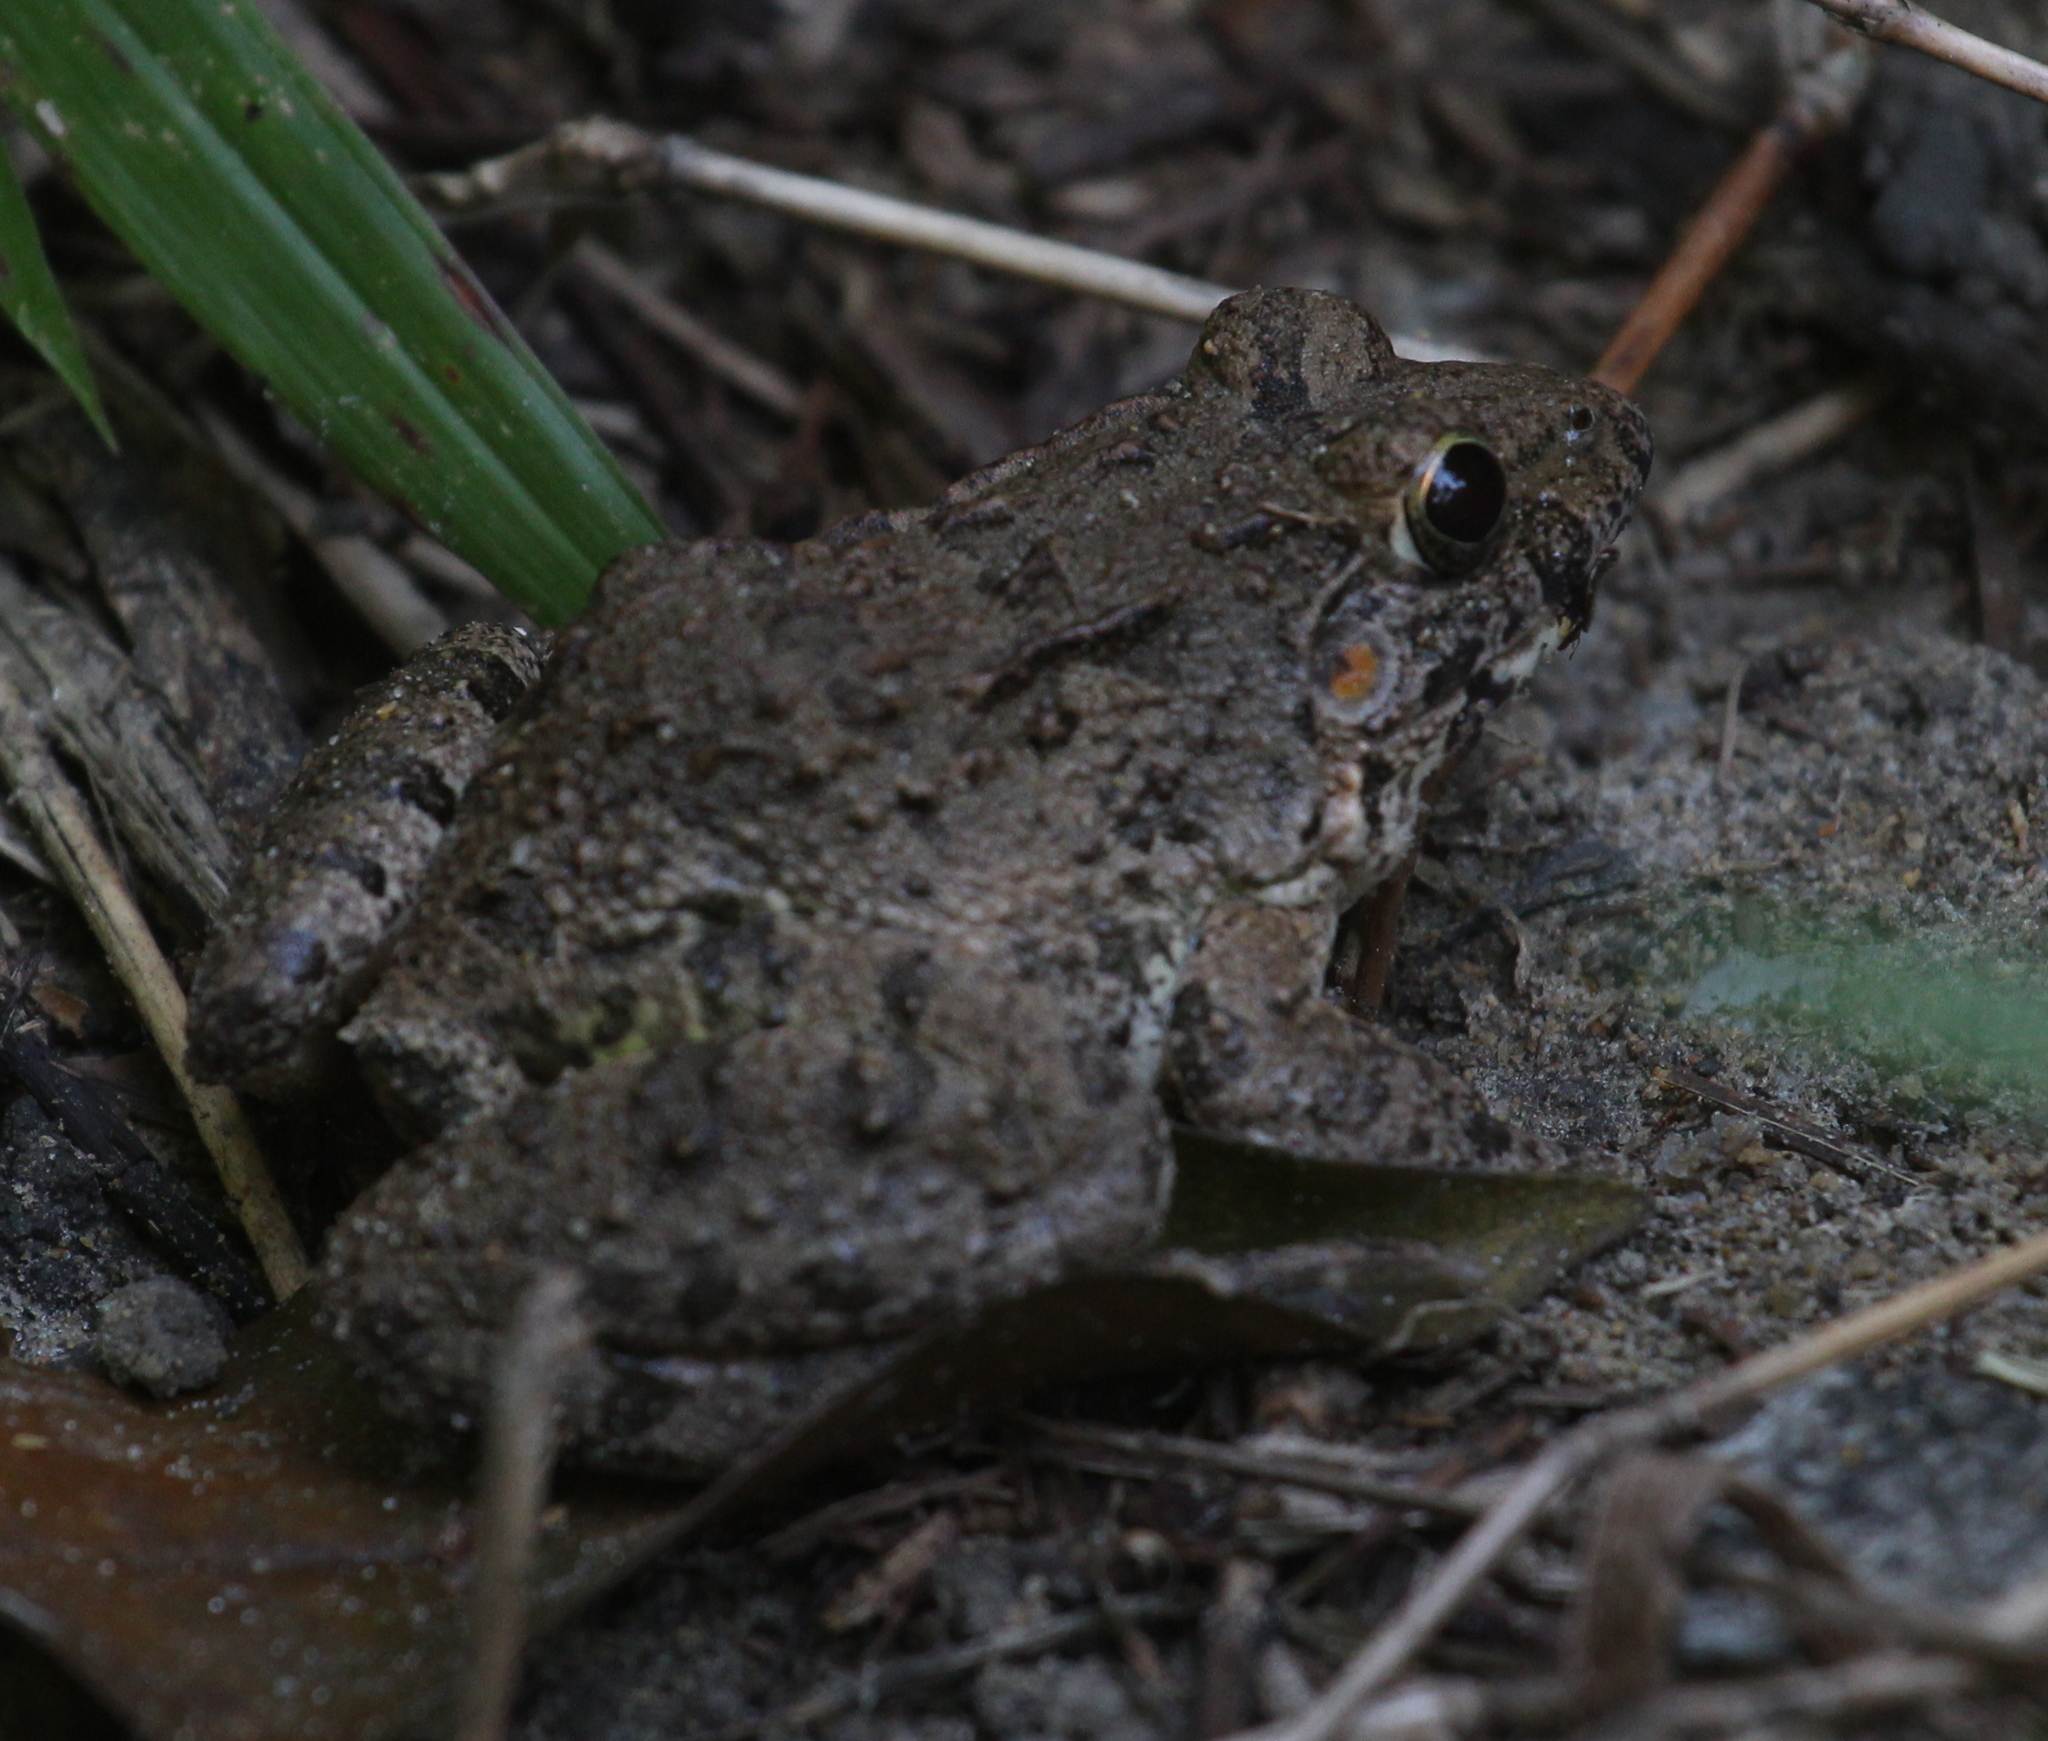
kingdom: Animalia
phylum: Chordata
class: Amphibia
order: Anura
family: Dicroglossidae
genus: Fejervarya
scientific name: Fejervarya limnocharis
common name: Asian grass frog/common pond frog/field frog/grass frog/indian rice frog
